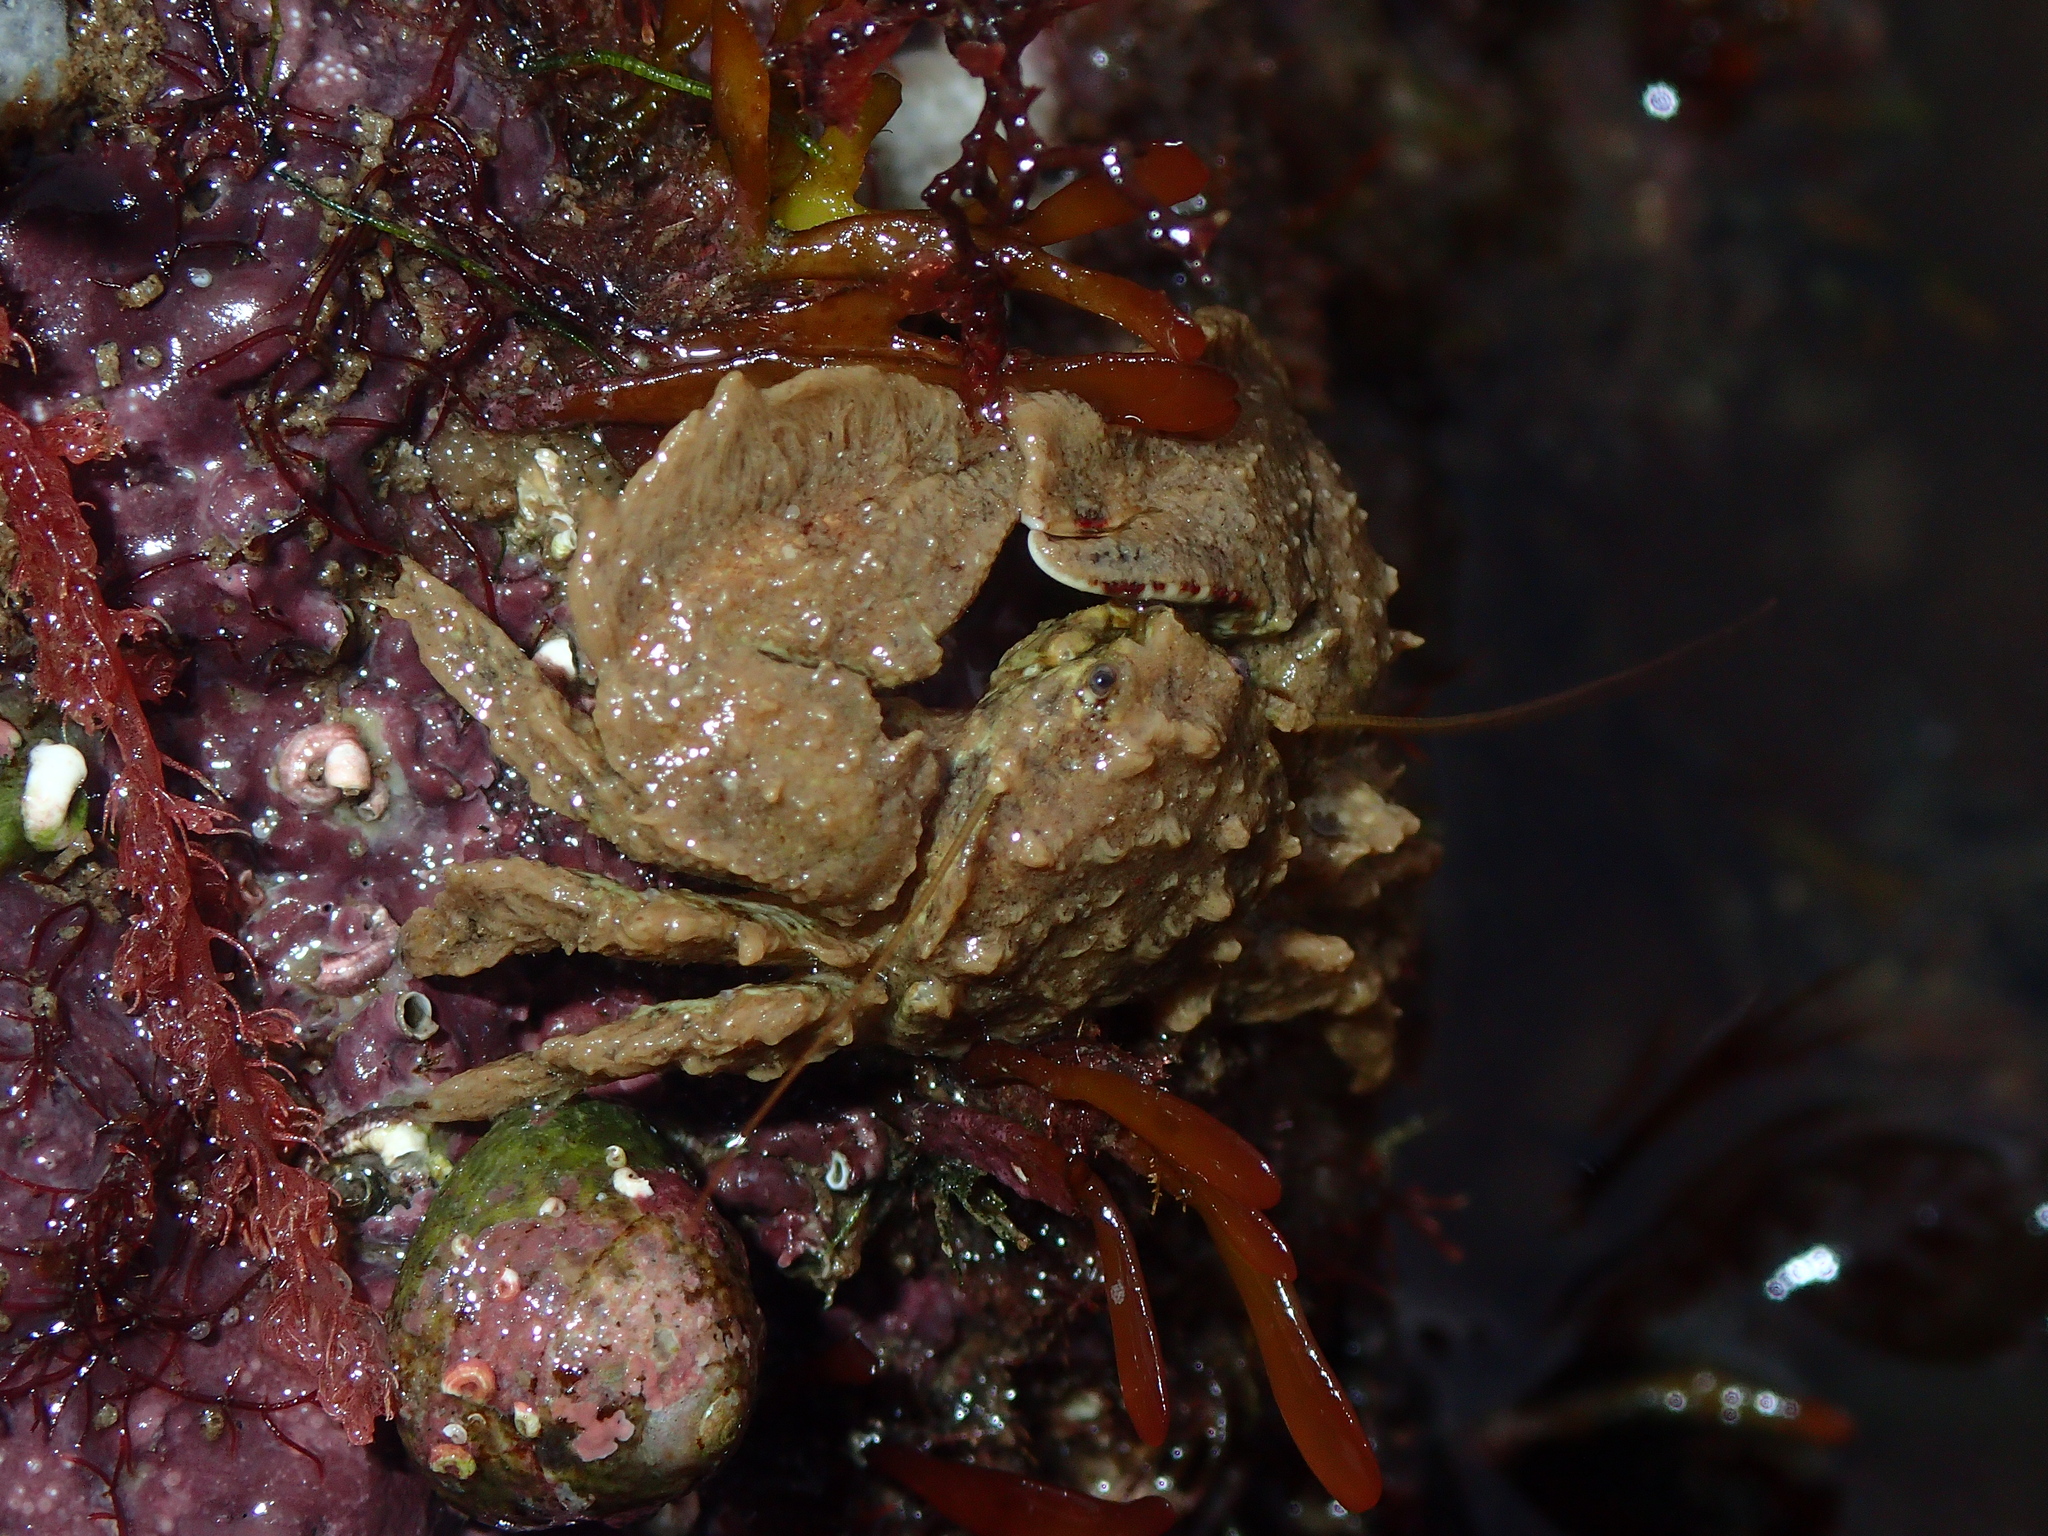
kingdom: Animalia
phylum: Arthropoda
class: Malacostraca
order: Decapoda
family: Porcellanidae
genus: Porcellana
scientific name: Porcellana platycheles
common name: Porcelain crab
